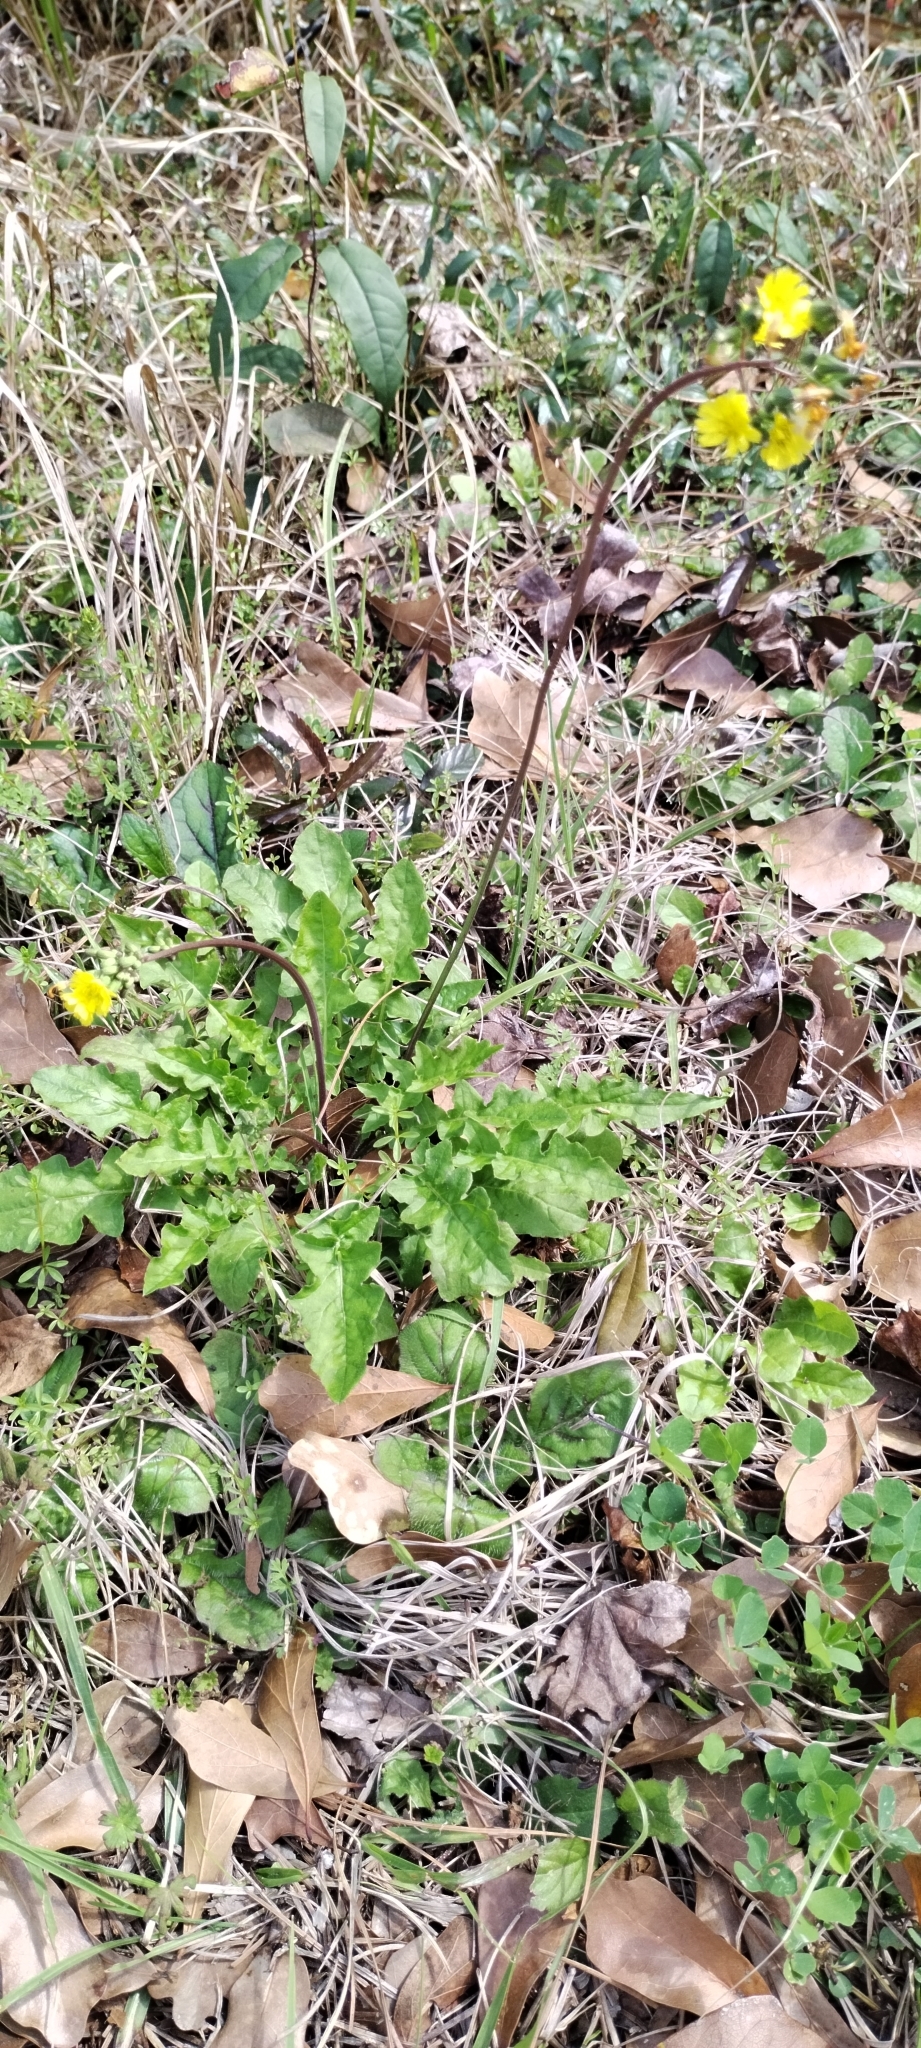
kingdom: Plantae
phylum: Tracheophyta
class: Magnoliopsida
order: Asterales
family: Asteraceae
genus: Youngia
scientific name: Youngia japonica
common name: Oriental false hawksbeard
